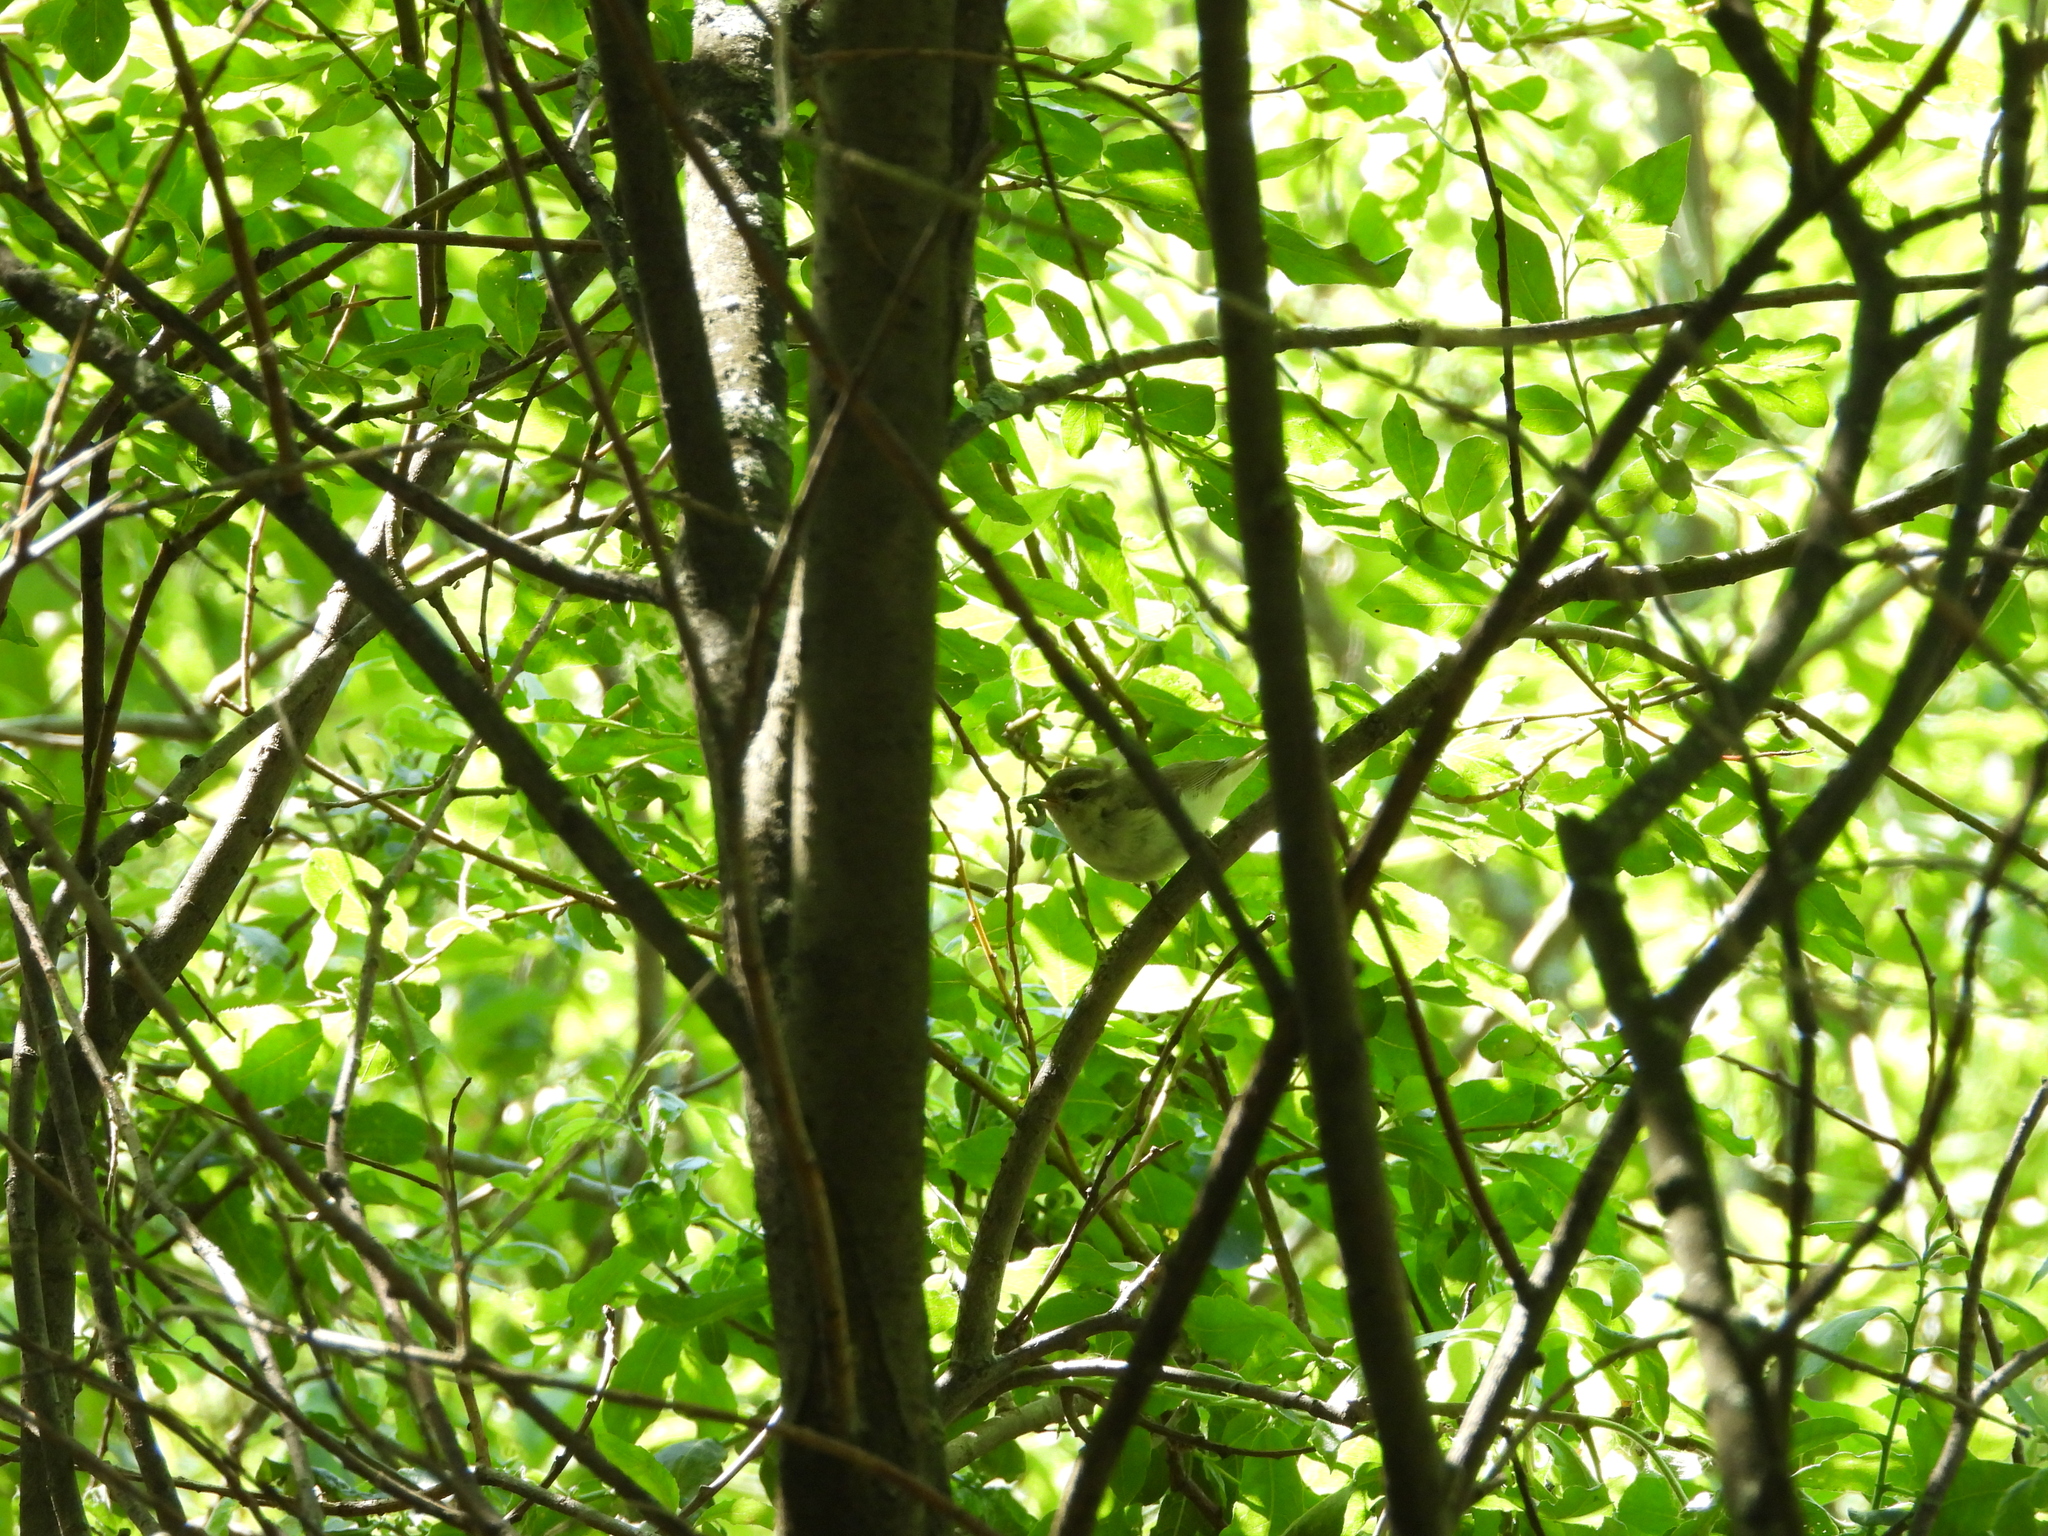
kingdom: Animalia
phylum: Chordata
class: Aves
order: Passeriformes
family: Phylloscopidae
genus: Phylloscopus
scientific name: Phylloscopus trochiloides
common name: Greenish warbler
